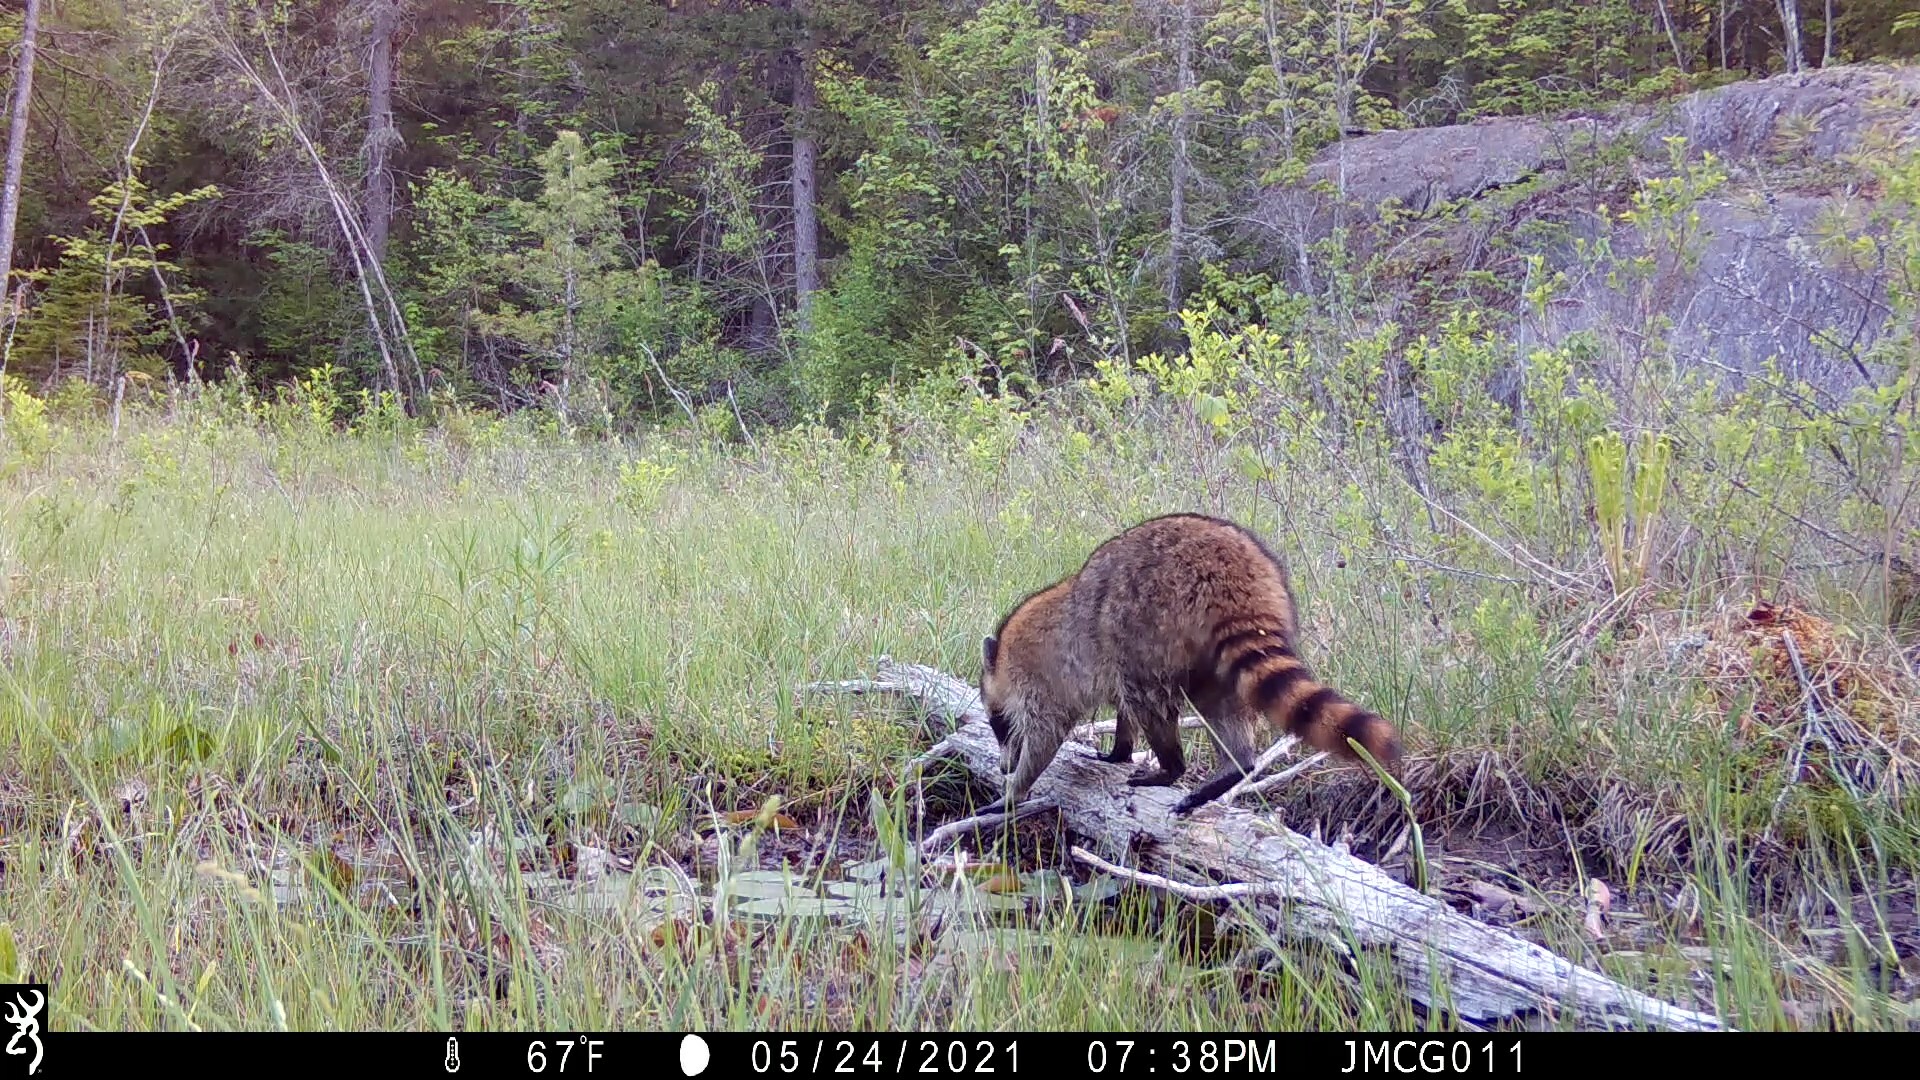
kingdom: Animalia
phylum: Chordata
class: Mammalia
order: Carnivora
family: Procyonidae
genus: Procyon
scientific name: Procyon lotor
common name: Raccoon
